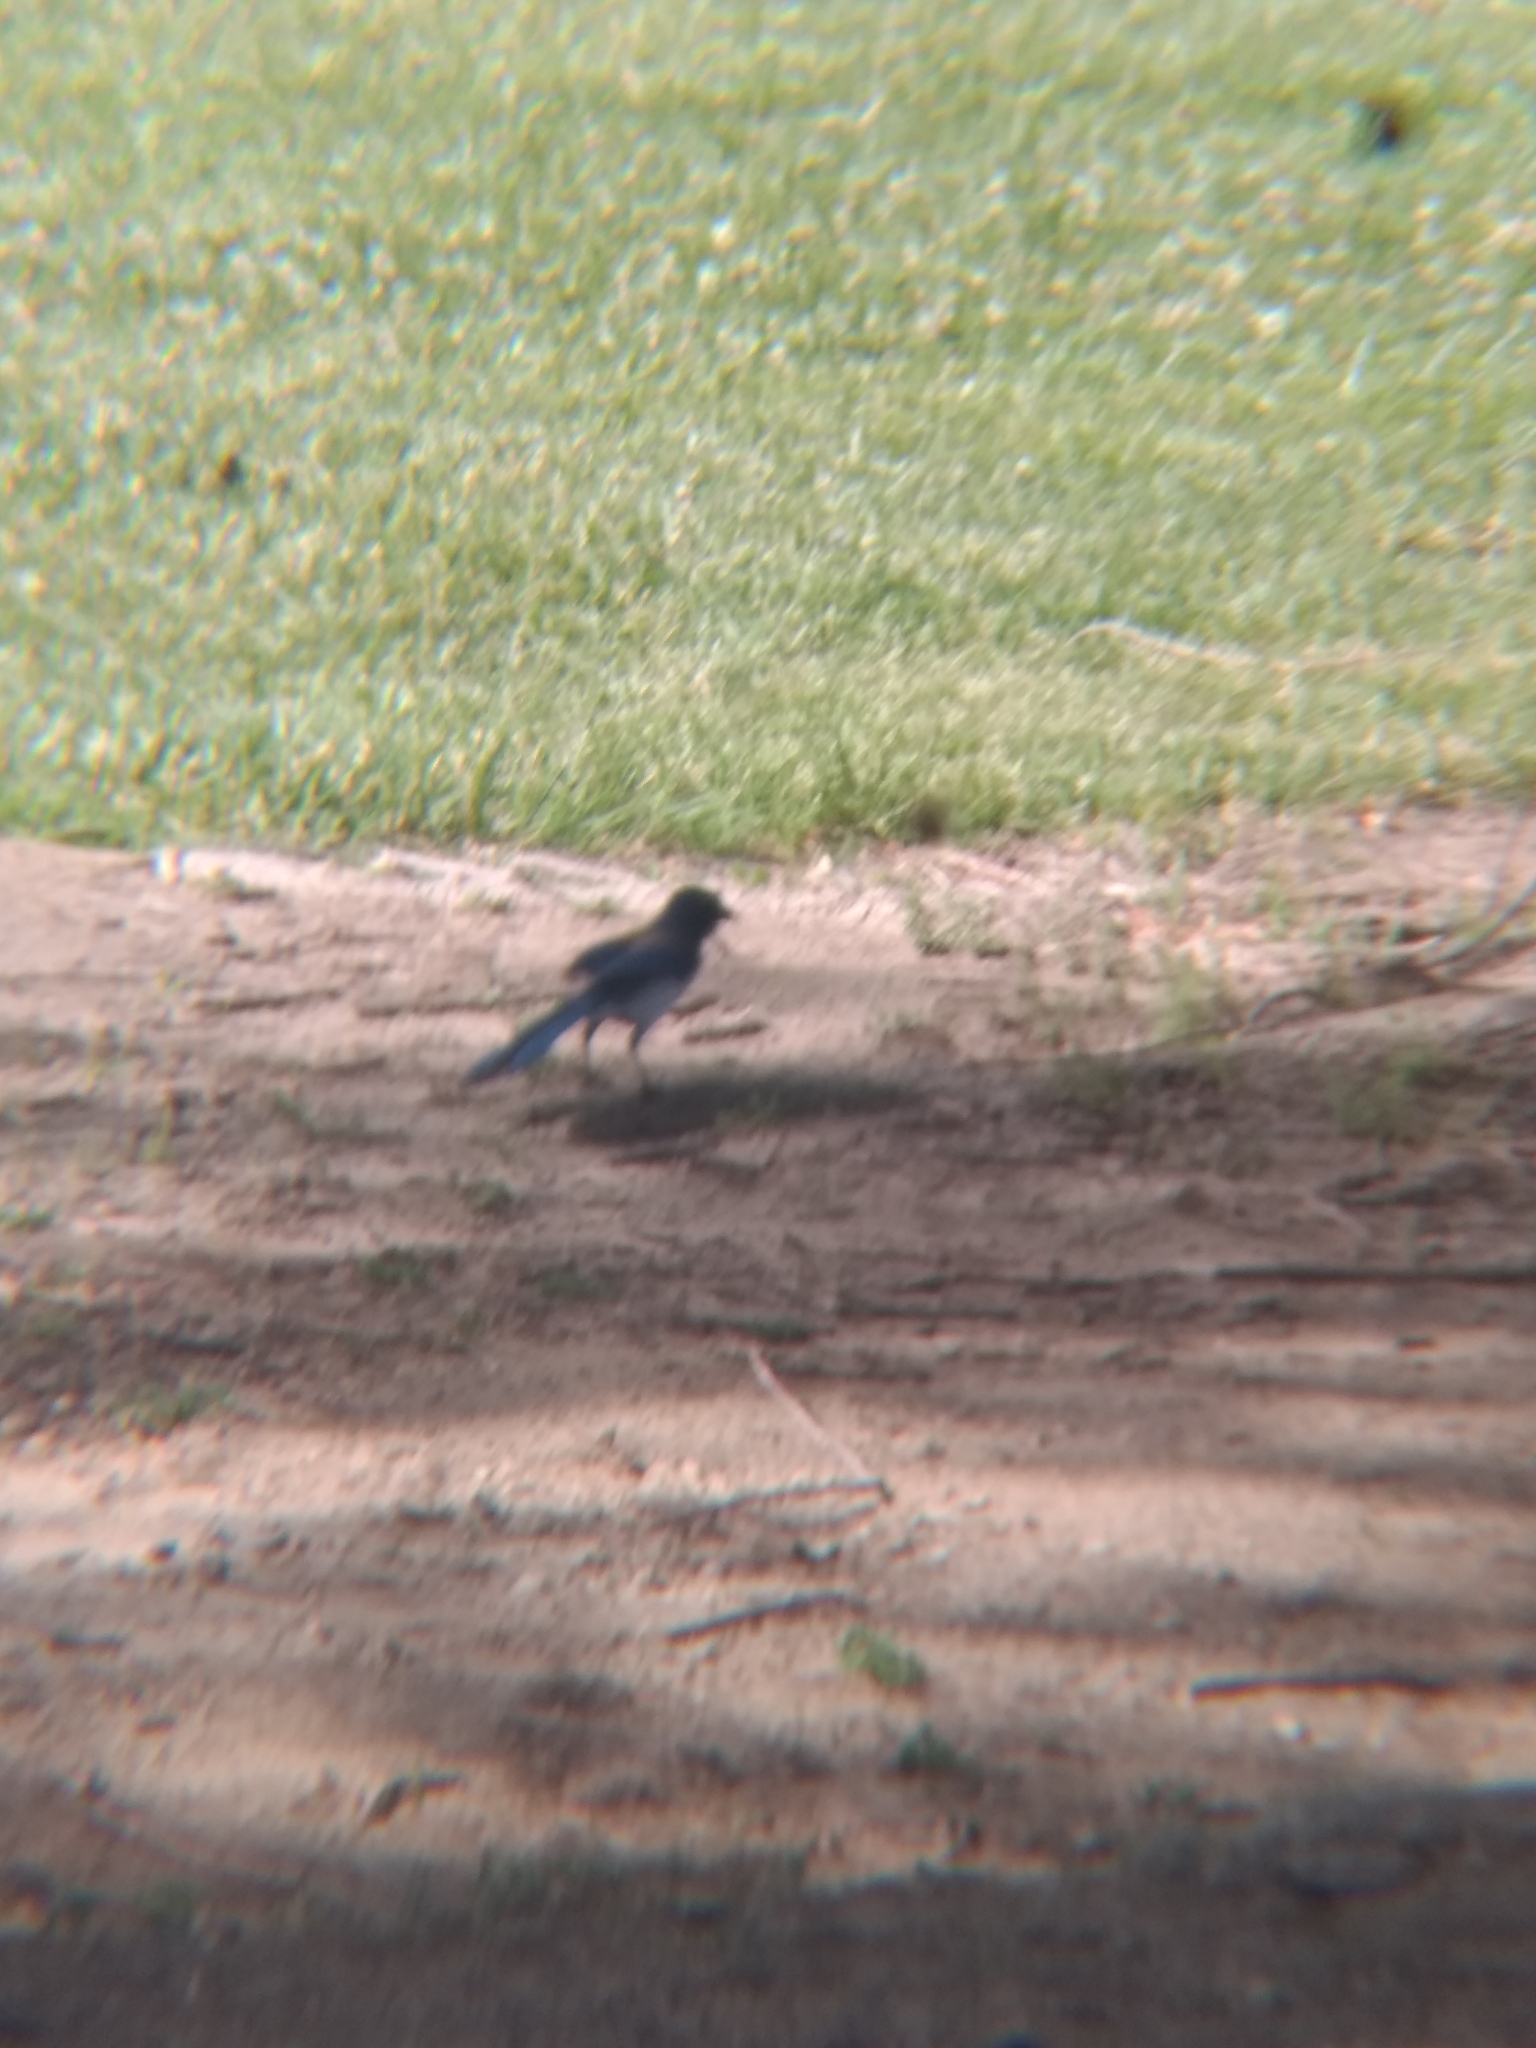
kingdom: Animalia
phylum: Chordata
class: Aves
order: Passeriformes
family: Corvidae
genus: Aphelocoma
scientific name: Aphelocoma californica
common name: California scrub-jay
